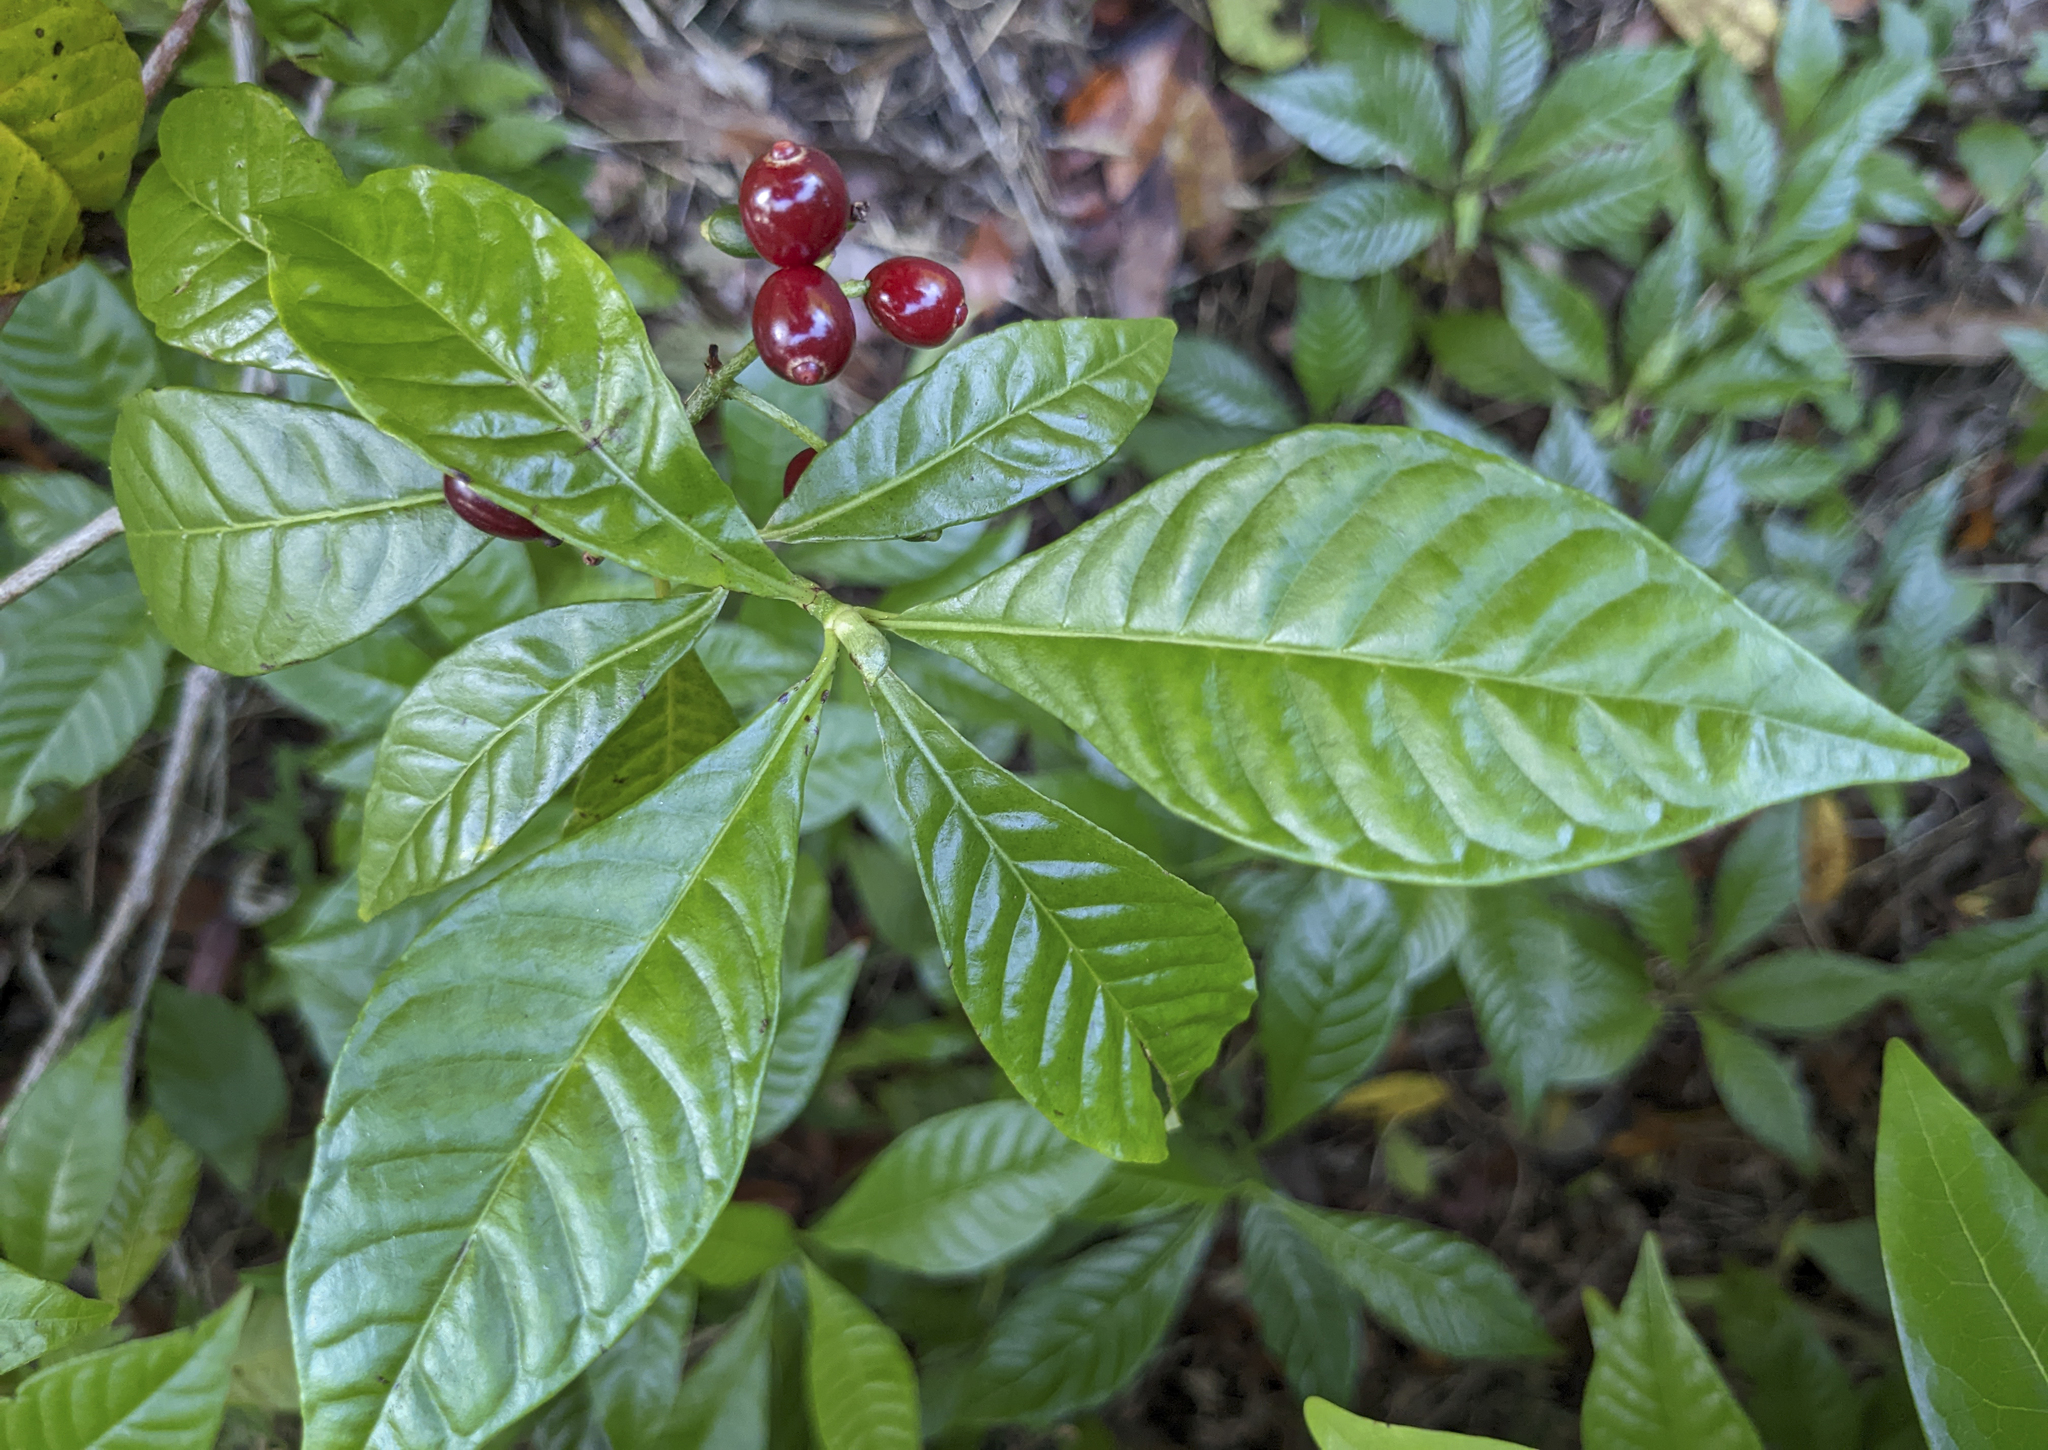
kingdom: Plantae
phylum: Tracheophyta
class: Magnoliopsida
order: Gentianales
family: Rubiaceae
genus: Psychotria
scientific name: Psychotria nervosa
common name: Bastard cankerberry
